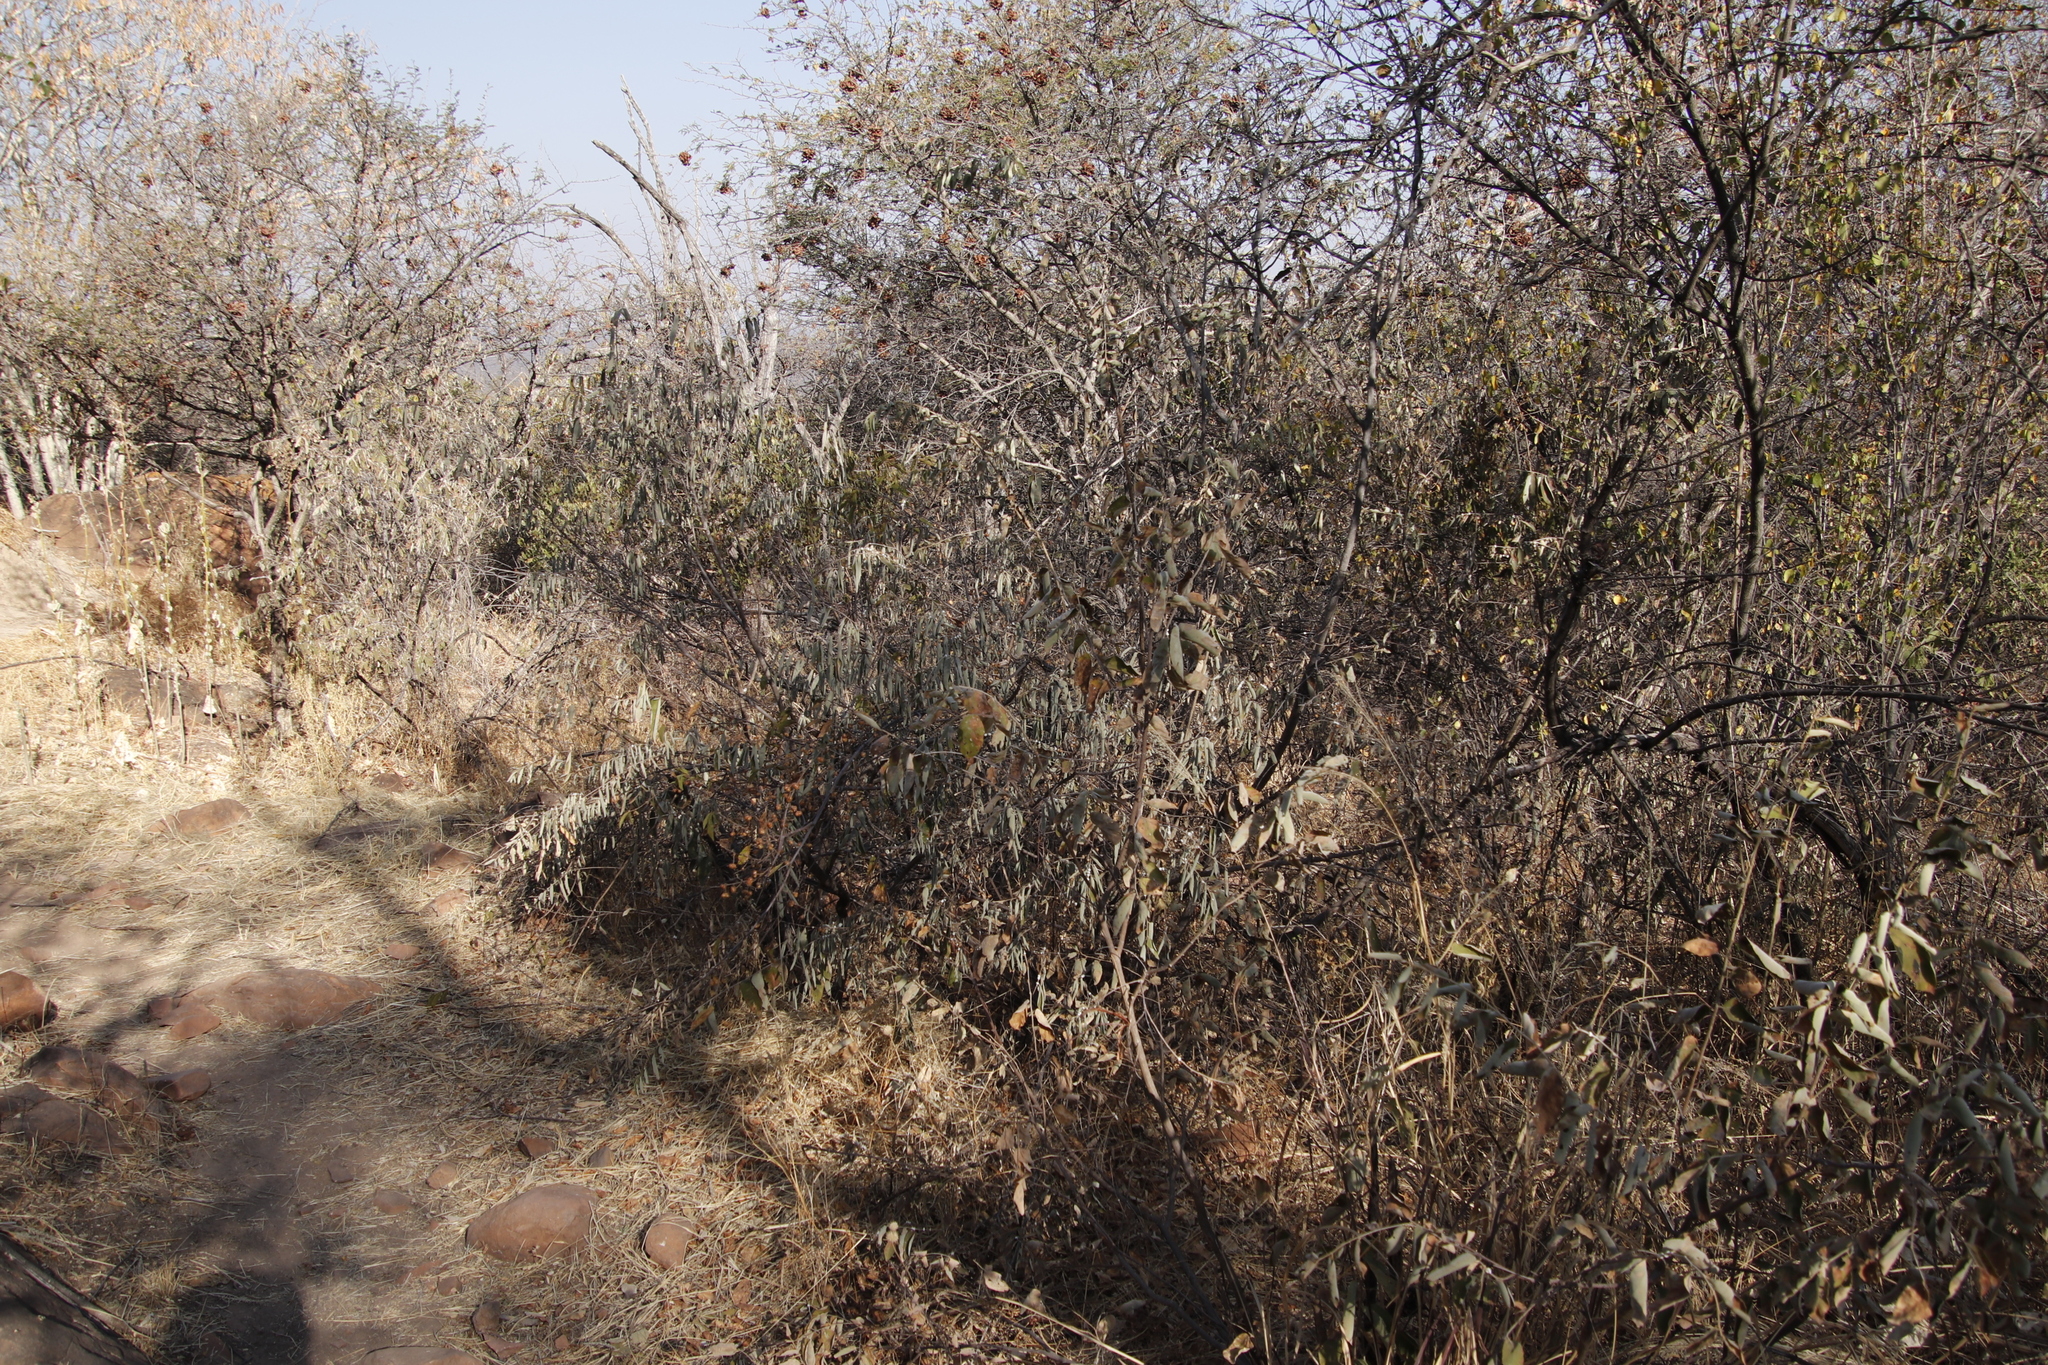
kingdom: Plantae
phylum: Tracheophyta
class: Magnoliopsida
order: Malvales
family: Malvaceae
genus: Grewia
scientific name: Grewia flava
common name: Brandy bush
